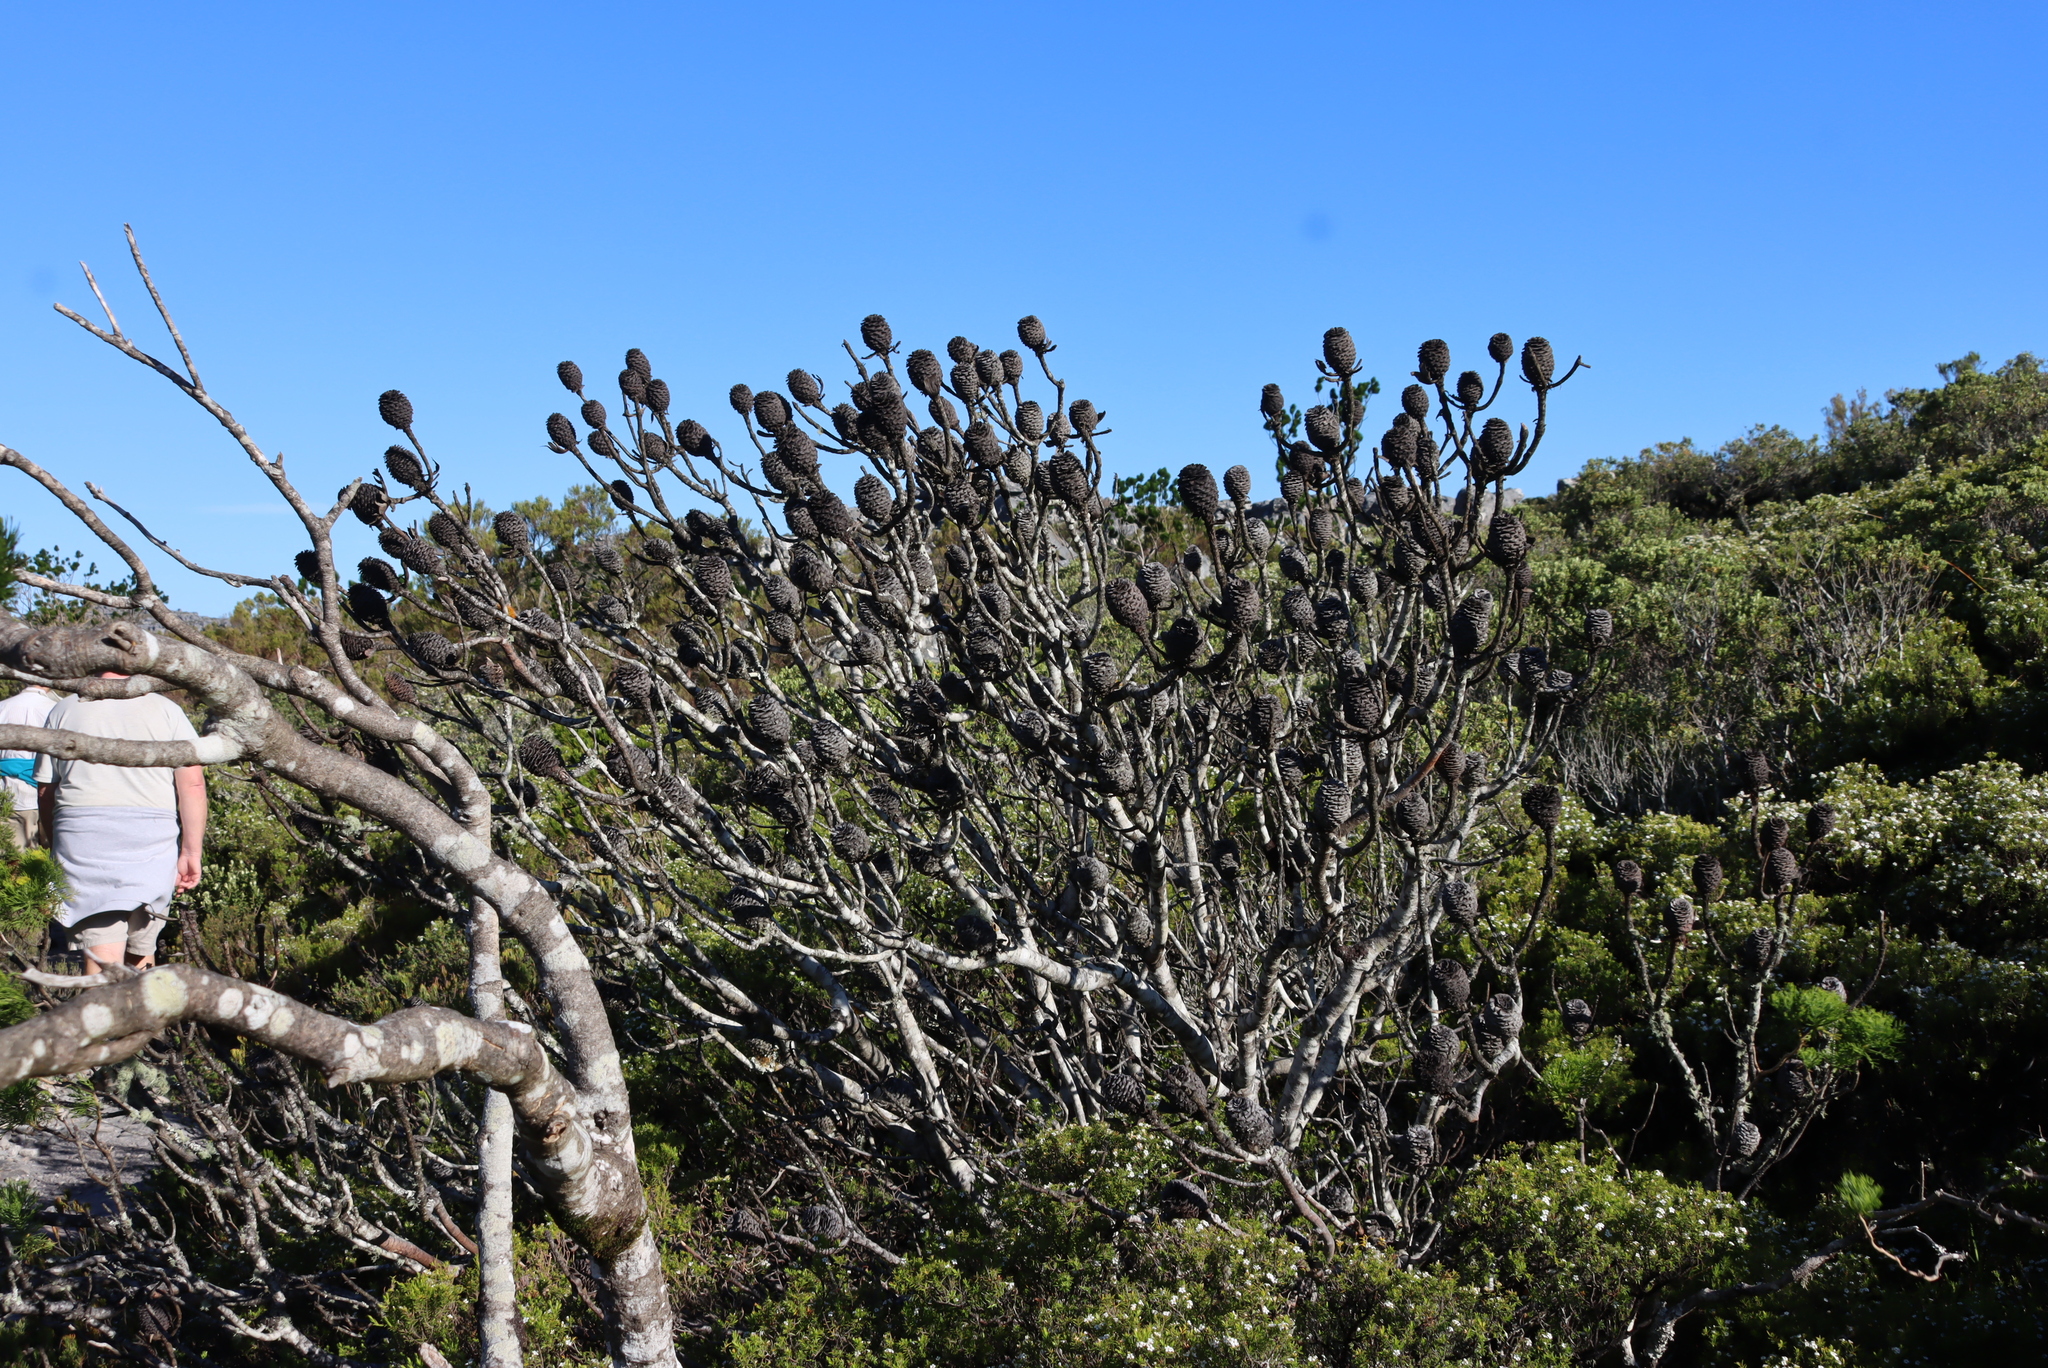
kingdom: Plantae
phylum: Tracheophyta
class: Magnoliopsida
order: Proteales
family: Proteaceae
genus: Leucadendron
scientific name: Leucadendron strobilinum
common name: Mountain rose
